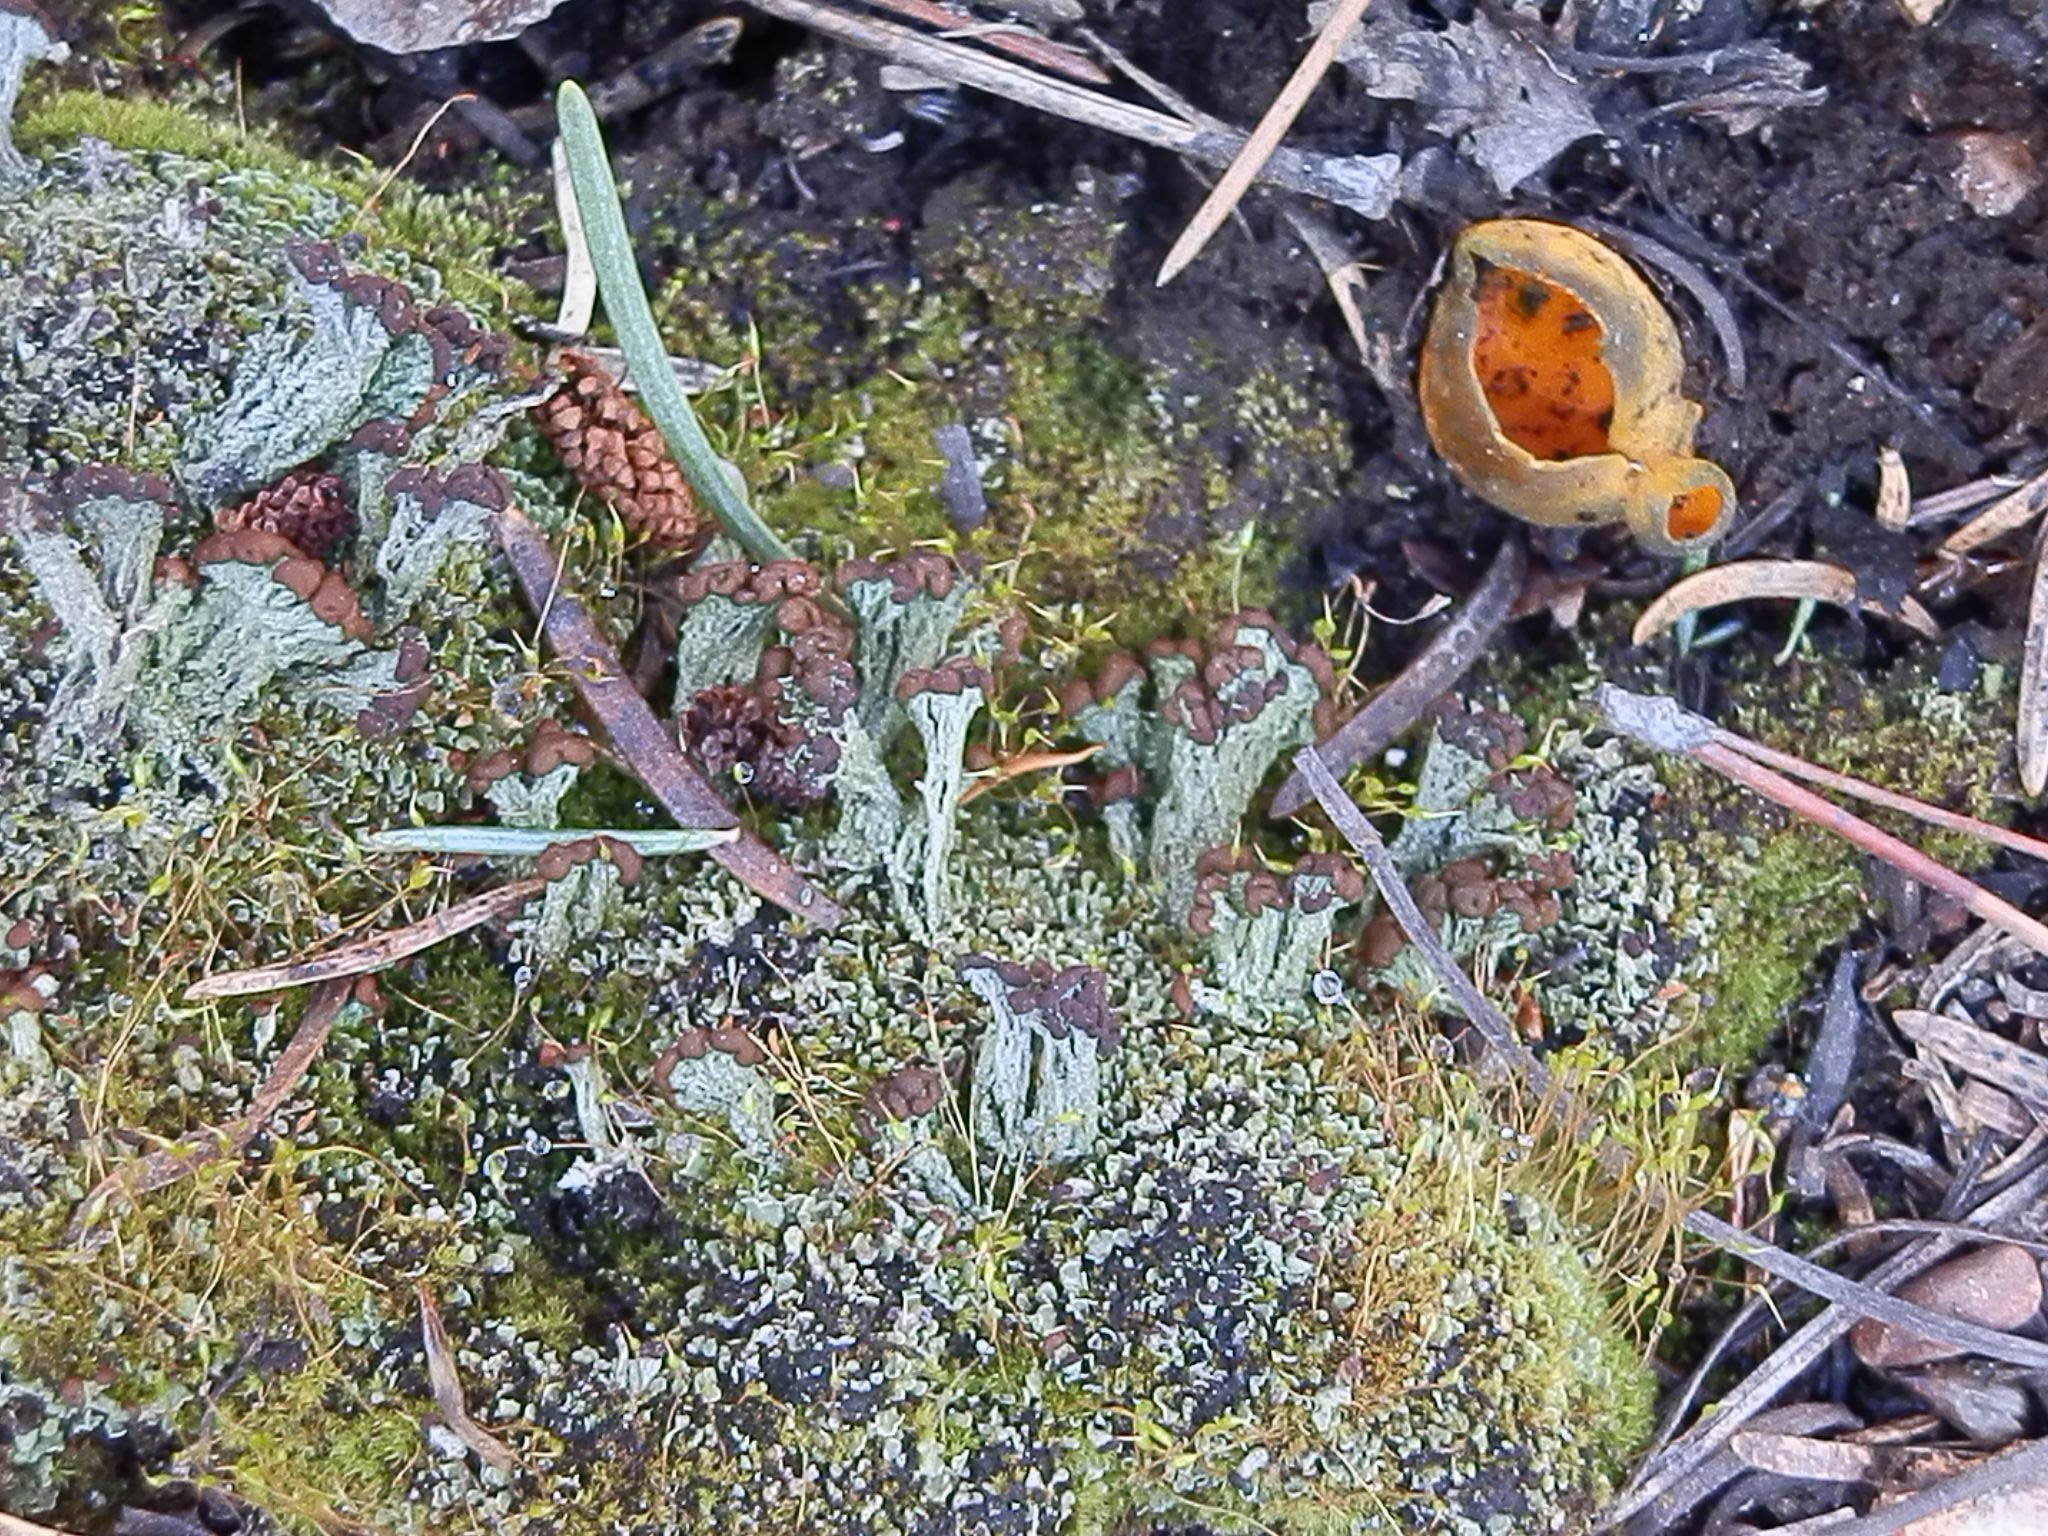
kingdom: Fungi
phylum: Ascomycota
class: Lecanoromycetes
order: Lecanorales
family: Cladoniaceae
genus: Cladonia
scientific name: Cladonia cariosa
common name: Split-peg lichen
